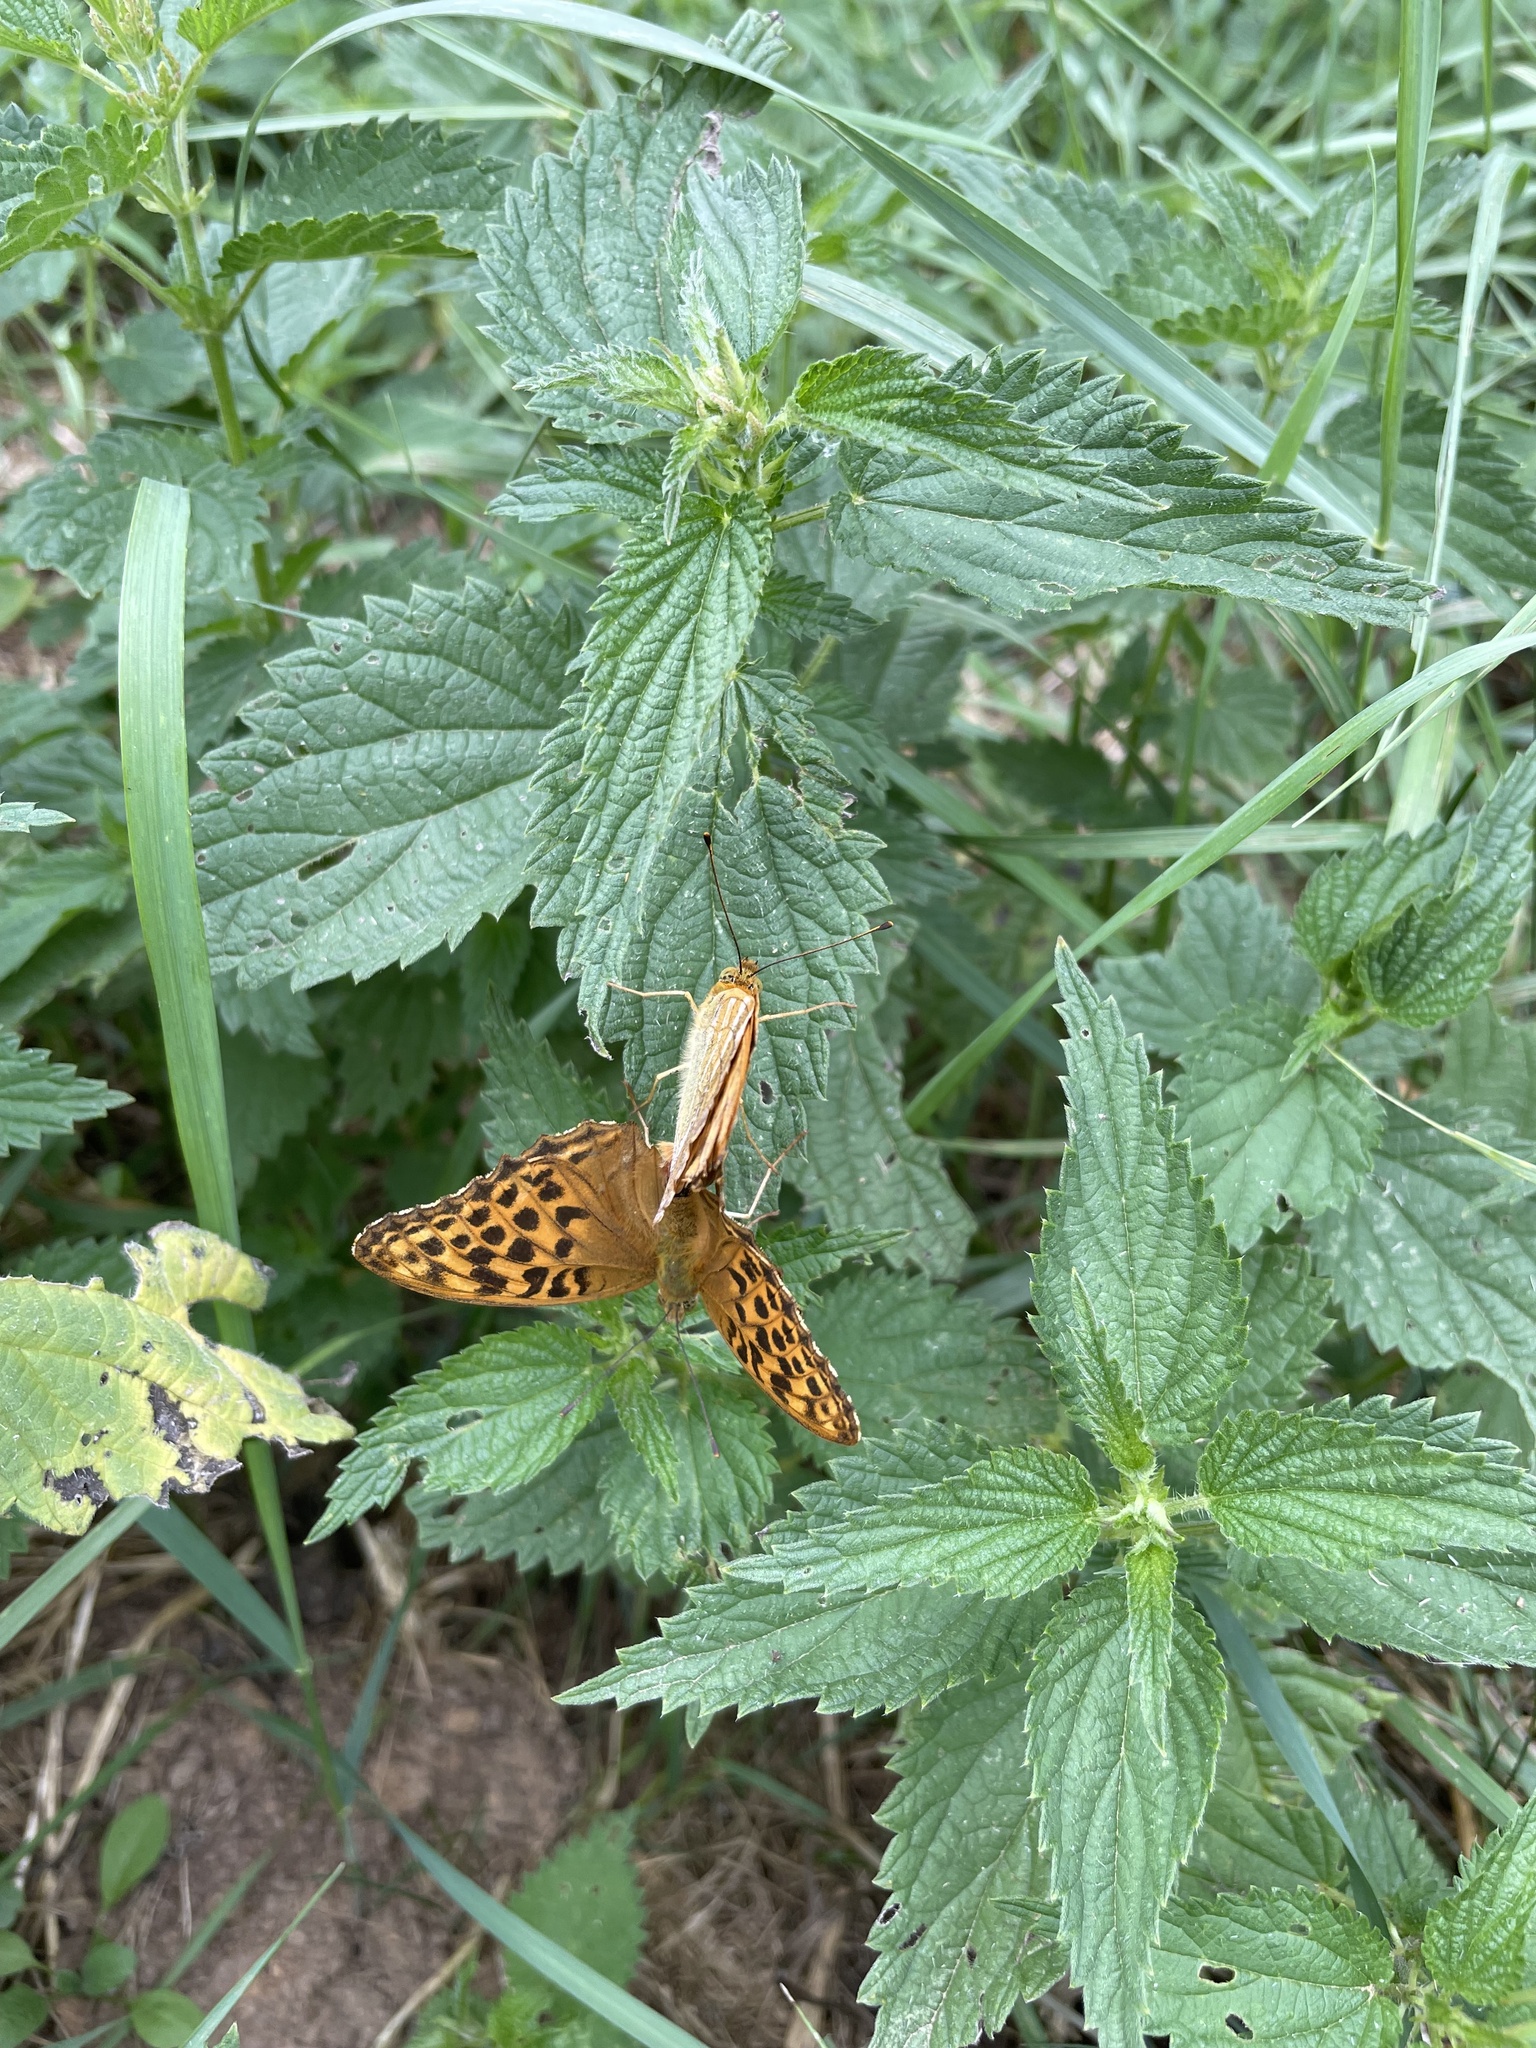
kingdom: Animalia
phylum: Arthropoda
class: Insecta
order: Lepidoptera
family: Nymphalidae
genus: Argynnis
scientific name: Argynnis paphia
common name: Silver-washed fritillary
